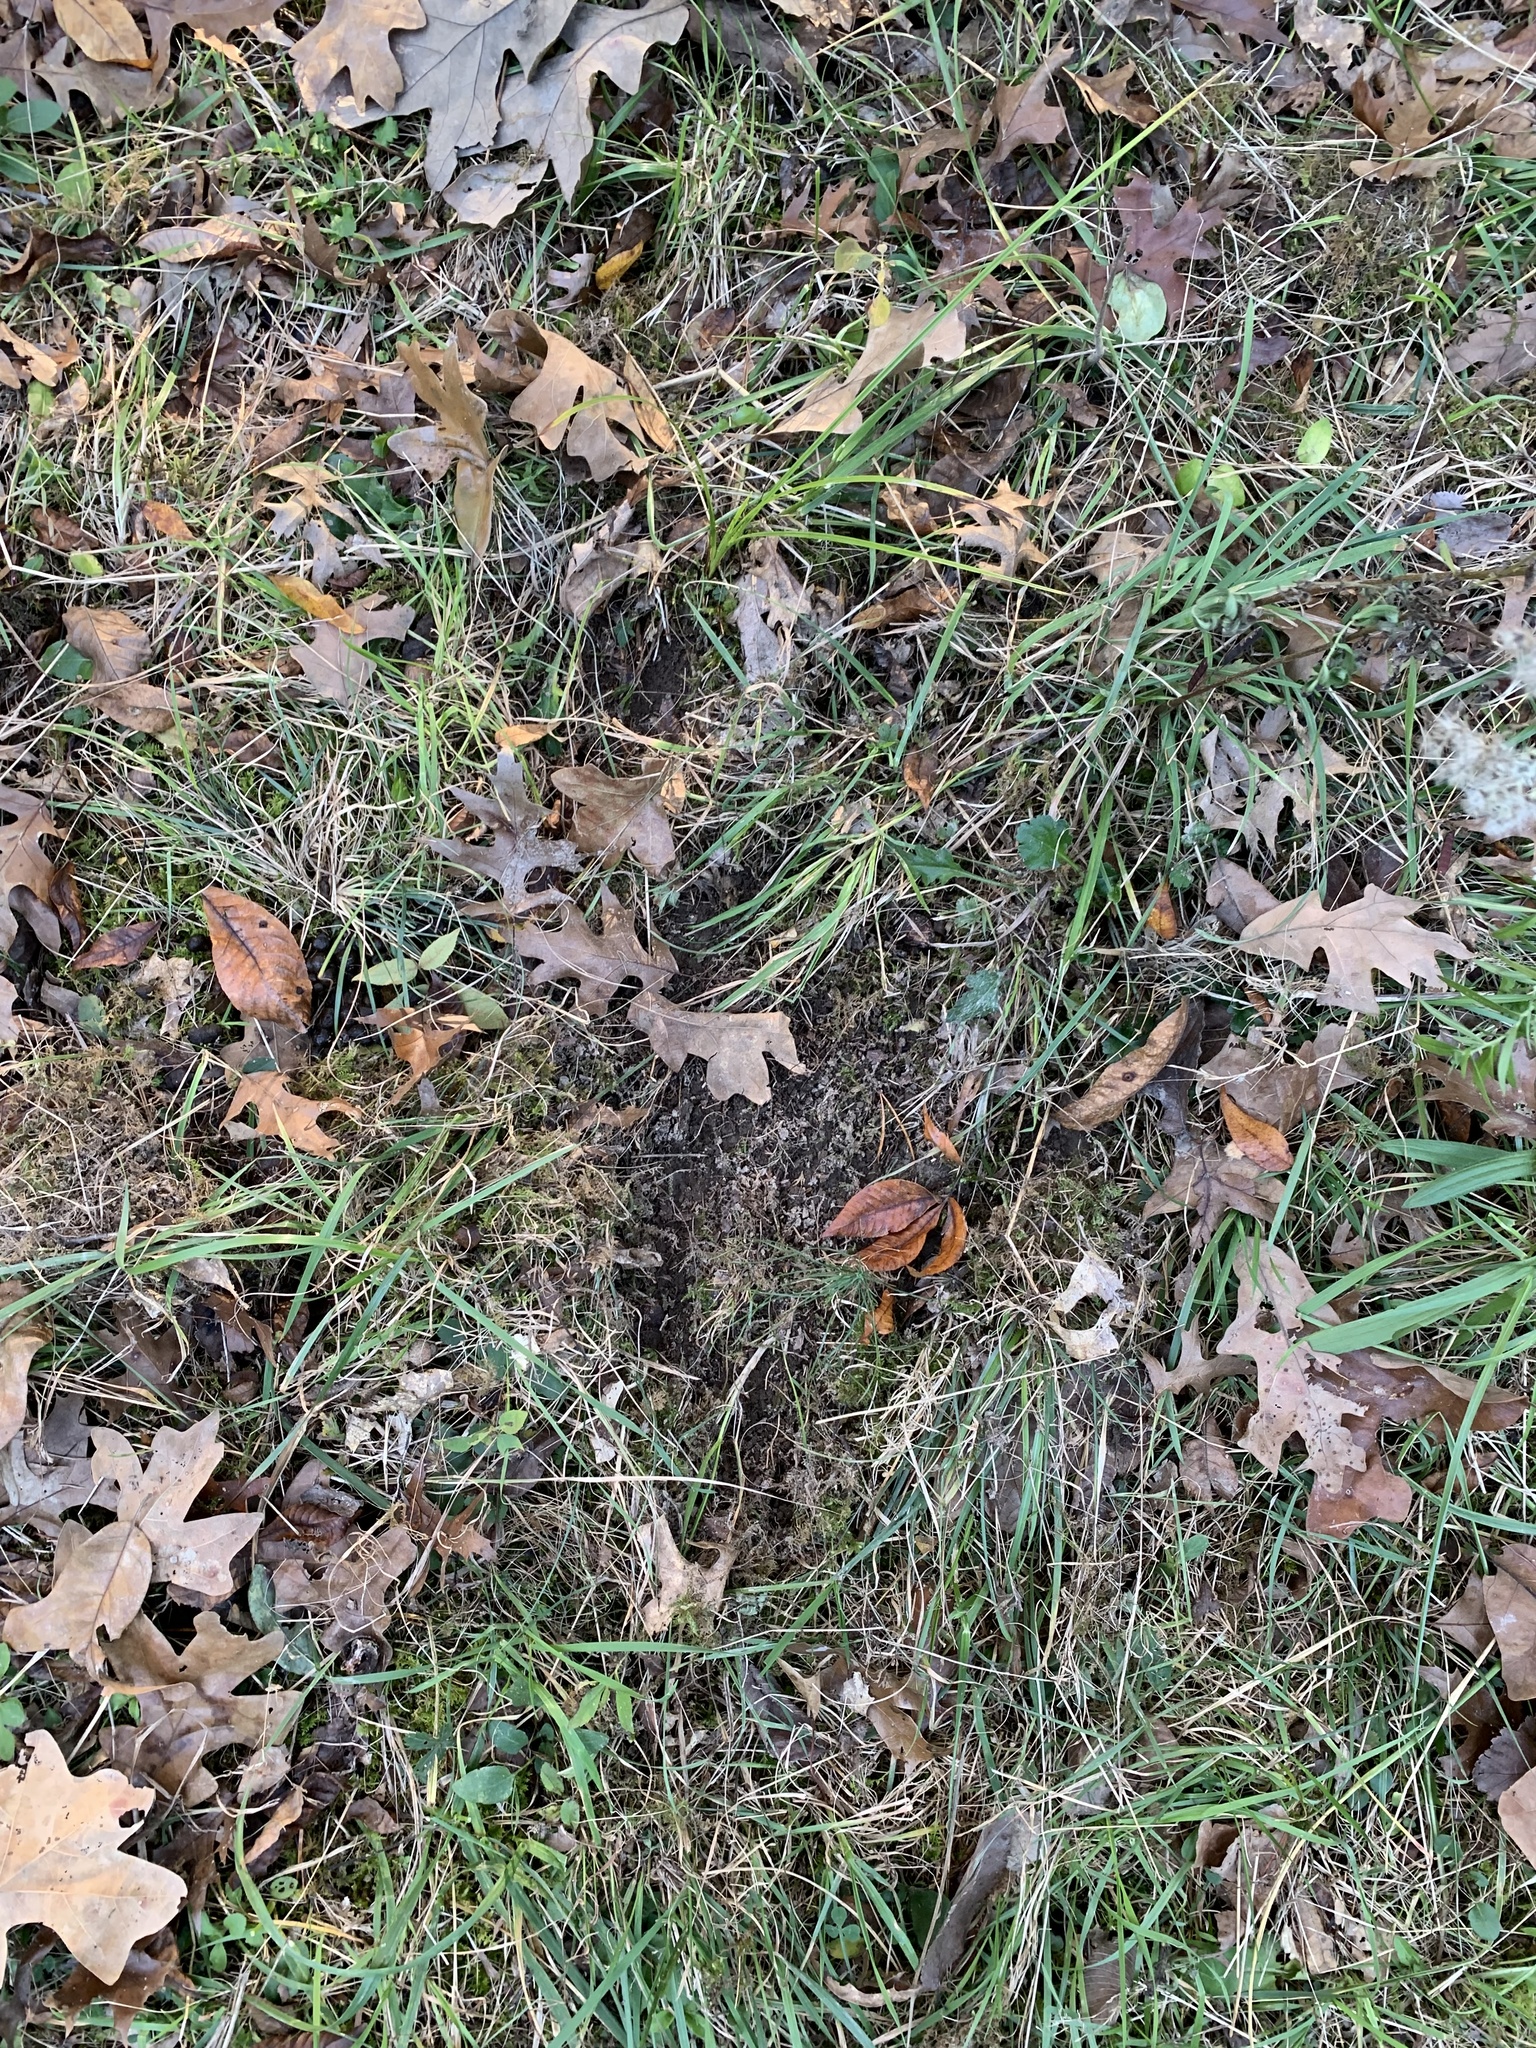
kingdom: Animalia
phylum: Chordata
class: Mammalia
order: Artiodactyla
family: Cervidae
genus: Odocoileus
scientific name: Odocoileus virginianus
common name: White-tailed deer
